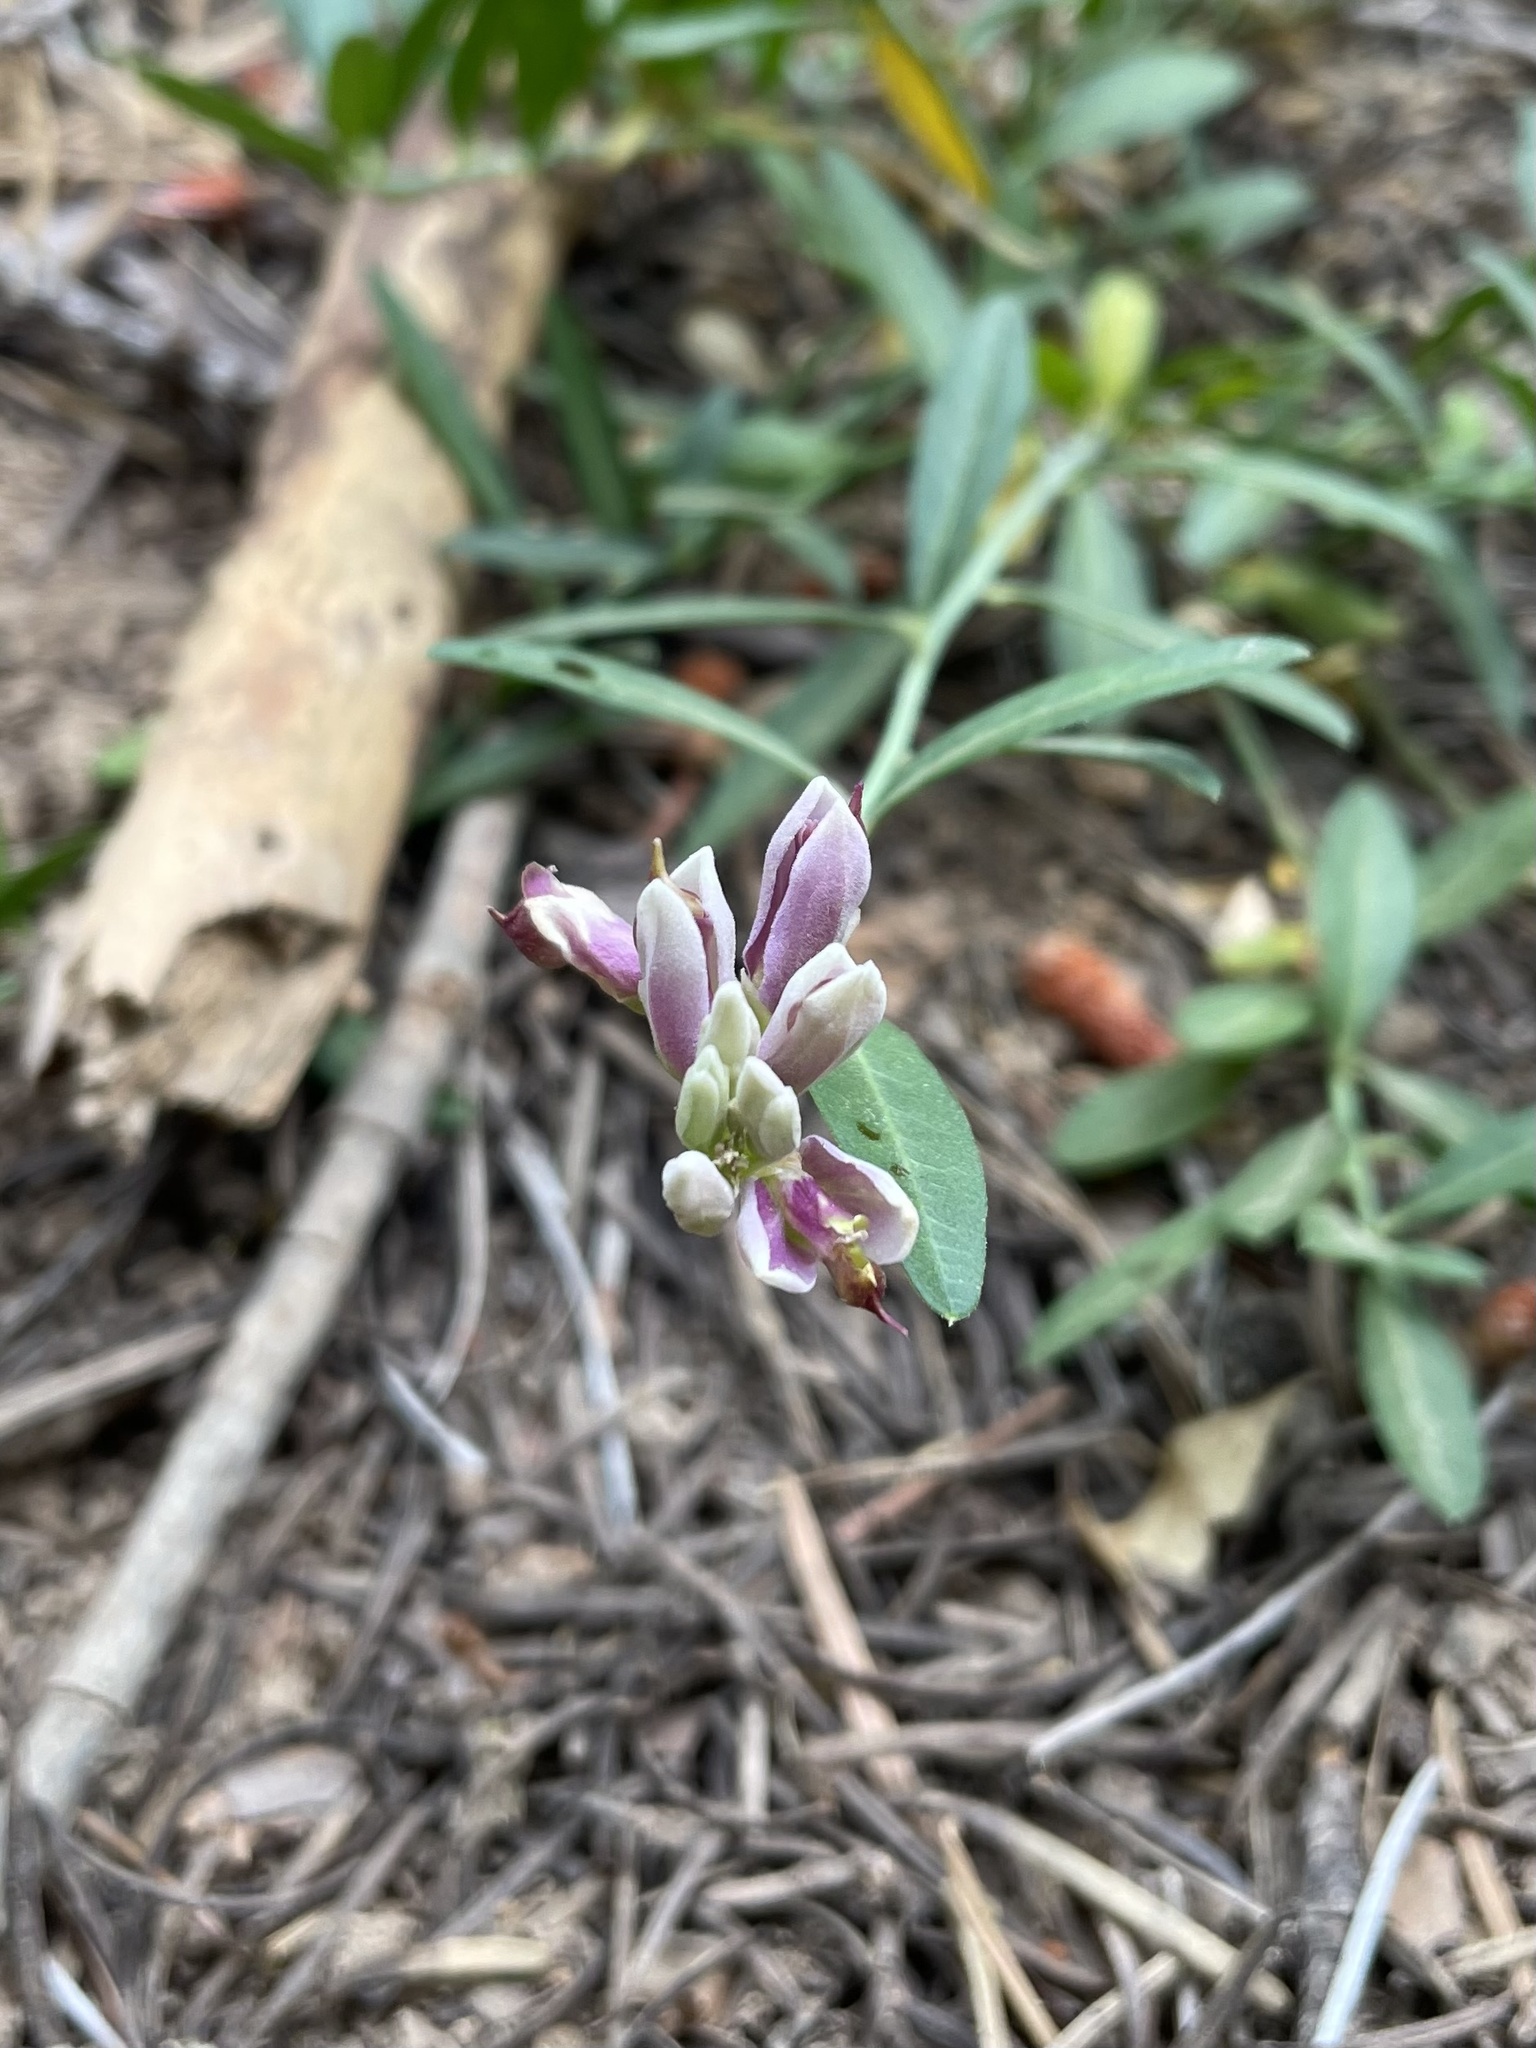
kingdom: Plantae
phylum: Tracheophyta
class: Magnoliopsida
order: Fabales
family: Polygalaceae
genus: Rhinotropis
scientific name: Rhinotropis cornuta
